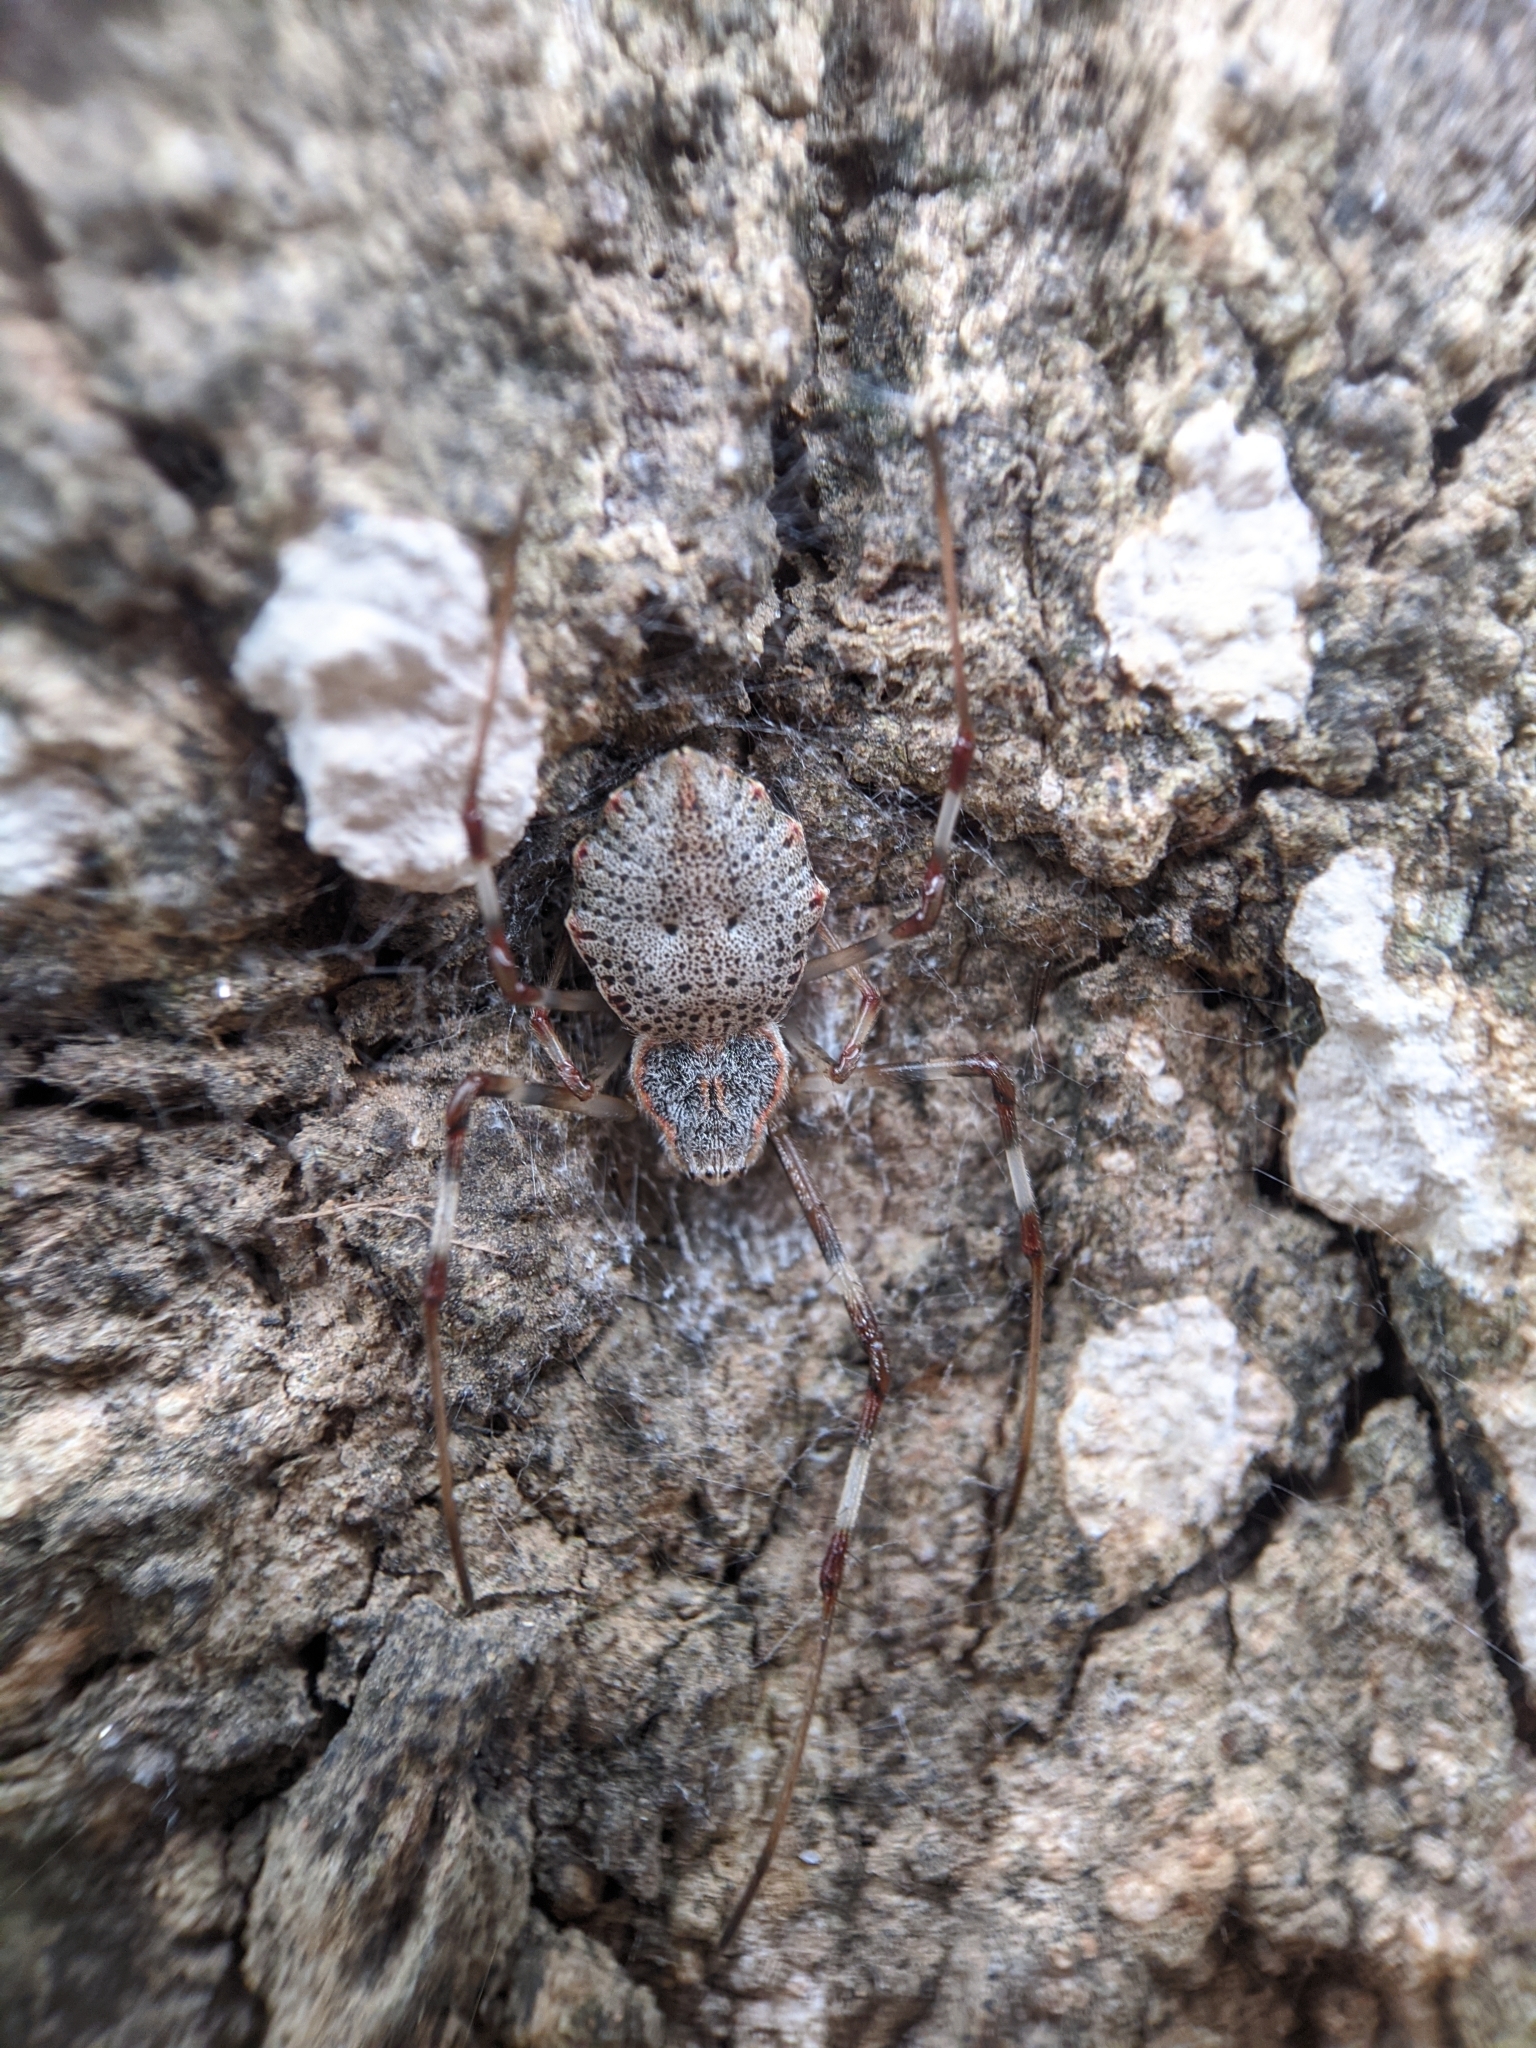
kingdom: Animalia
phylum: Arthropoda
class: Arachnida
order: Araneae
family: Araneidae
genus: Herennia
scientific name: Herennia multipuncta
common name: Spotted coin spider
